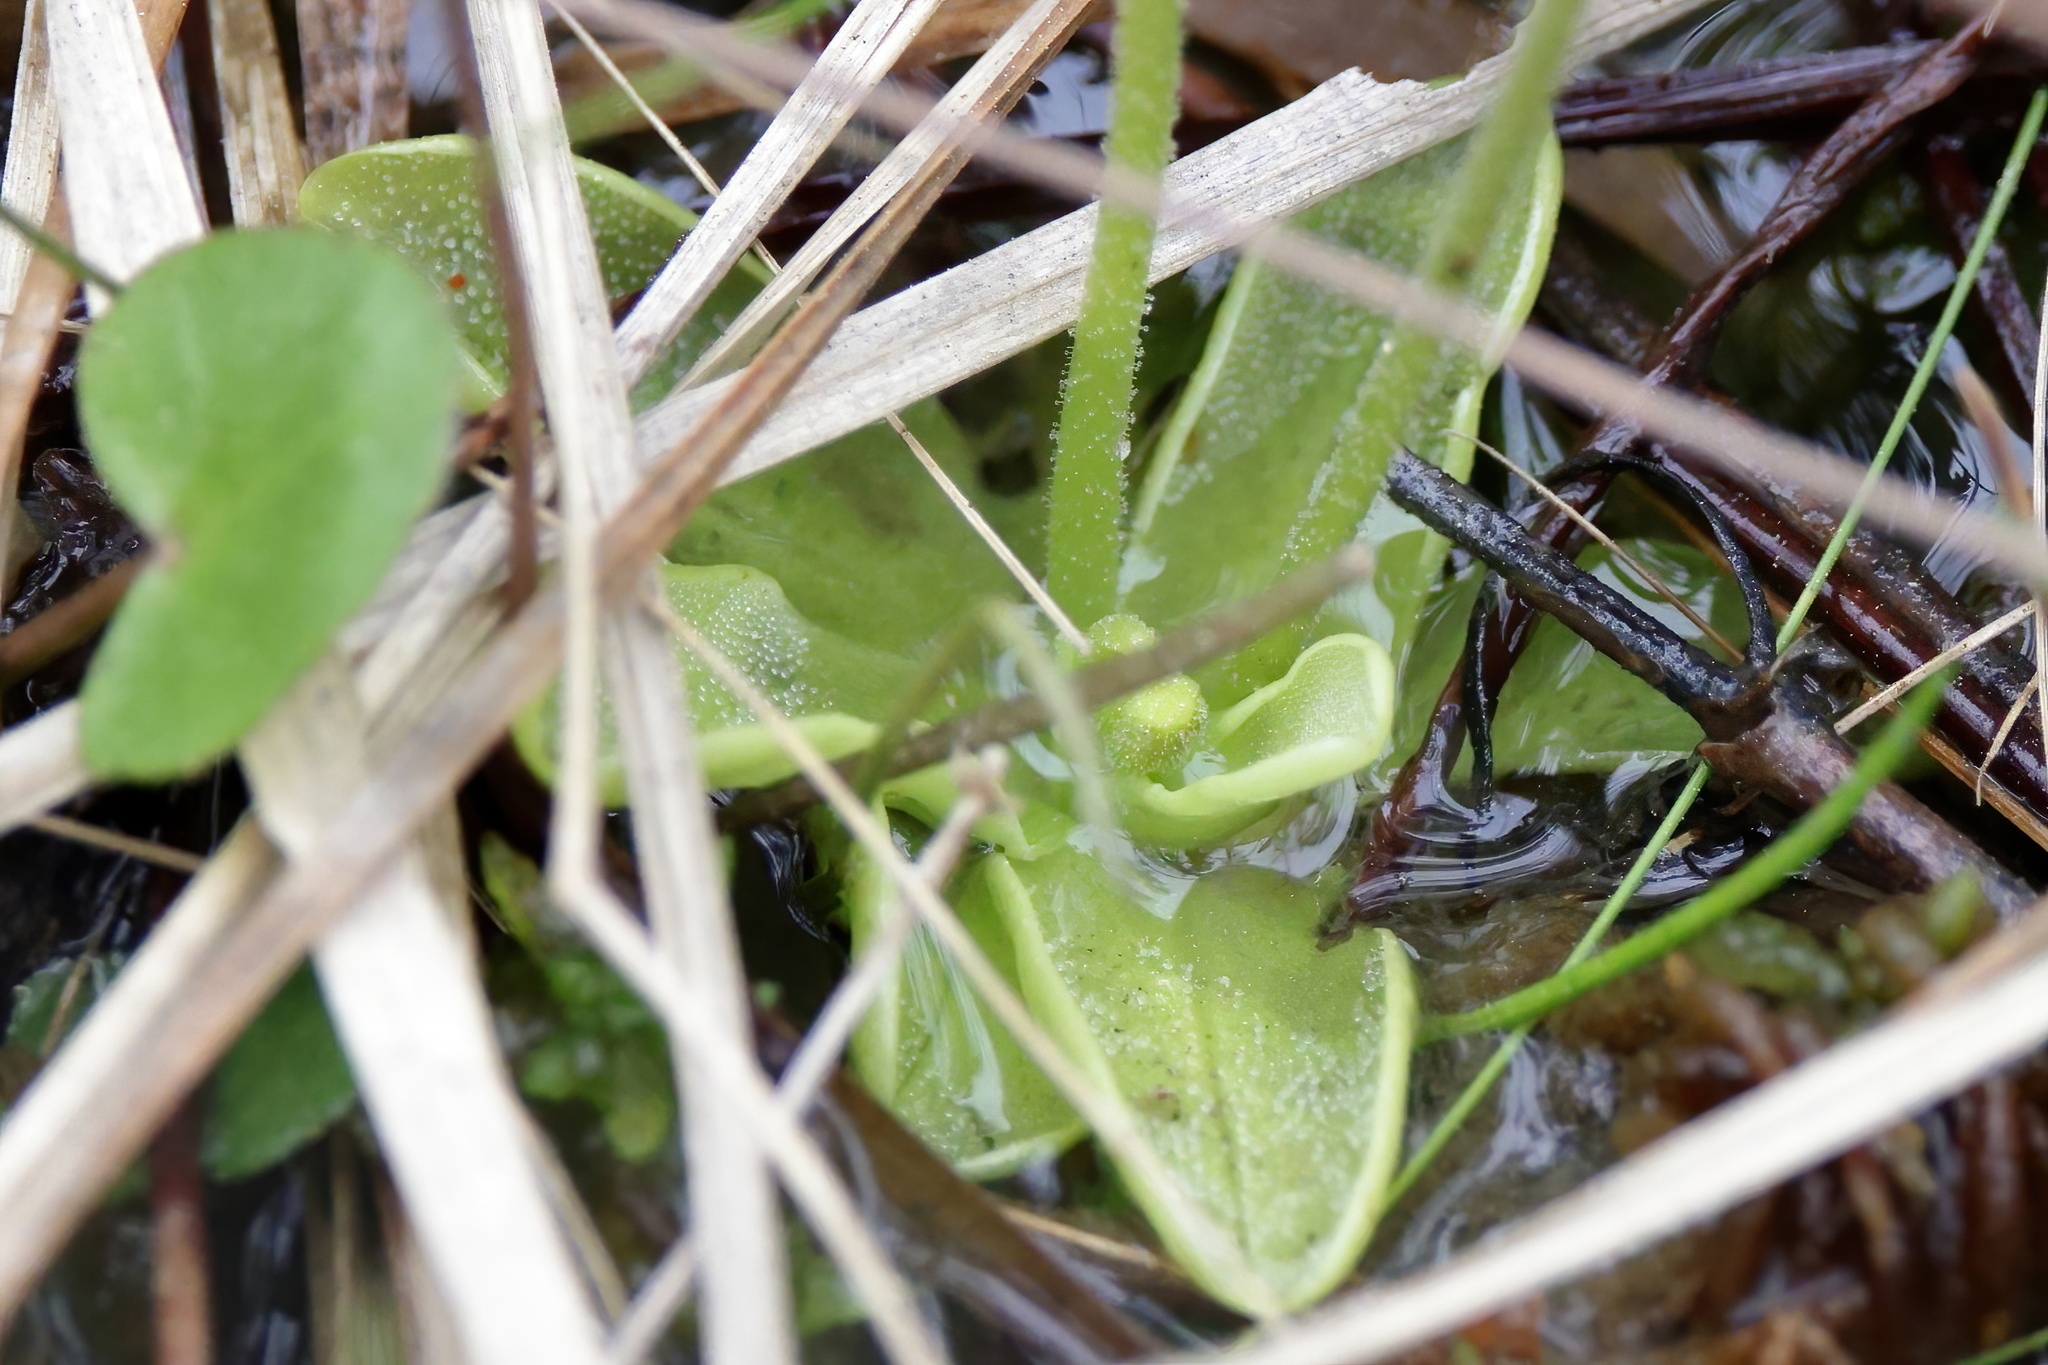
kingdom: Plantae
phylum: Tracheophyta
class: Magnoliopsida
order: Lamiales
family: Lentibulariaceae
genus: Pinguicula
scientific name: Pinguicula primuliflora
